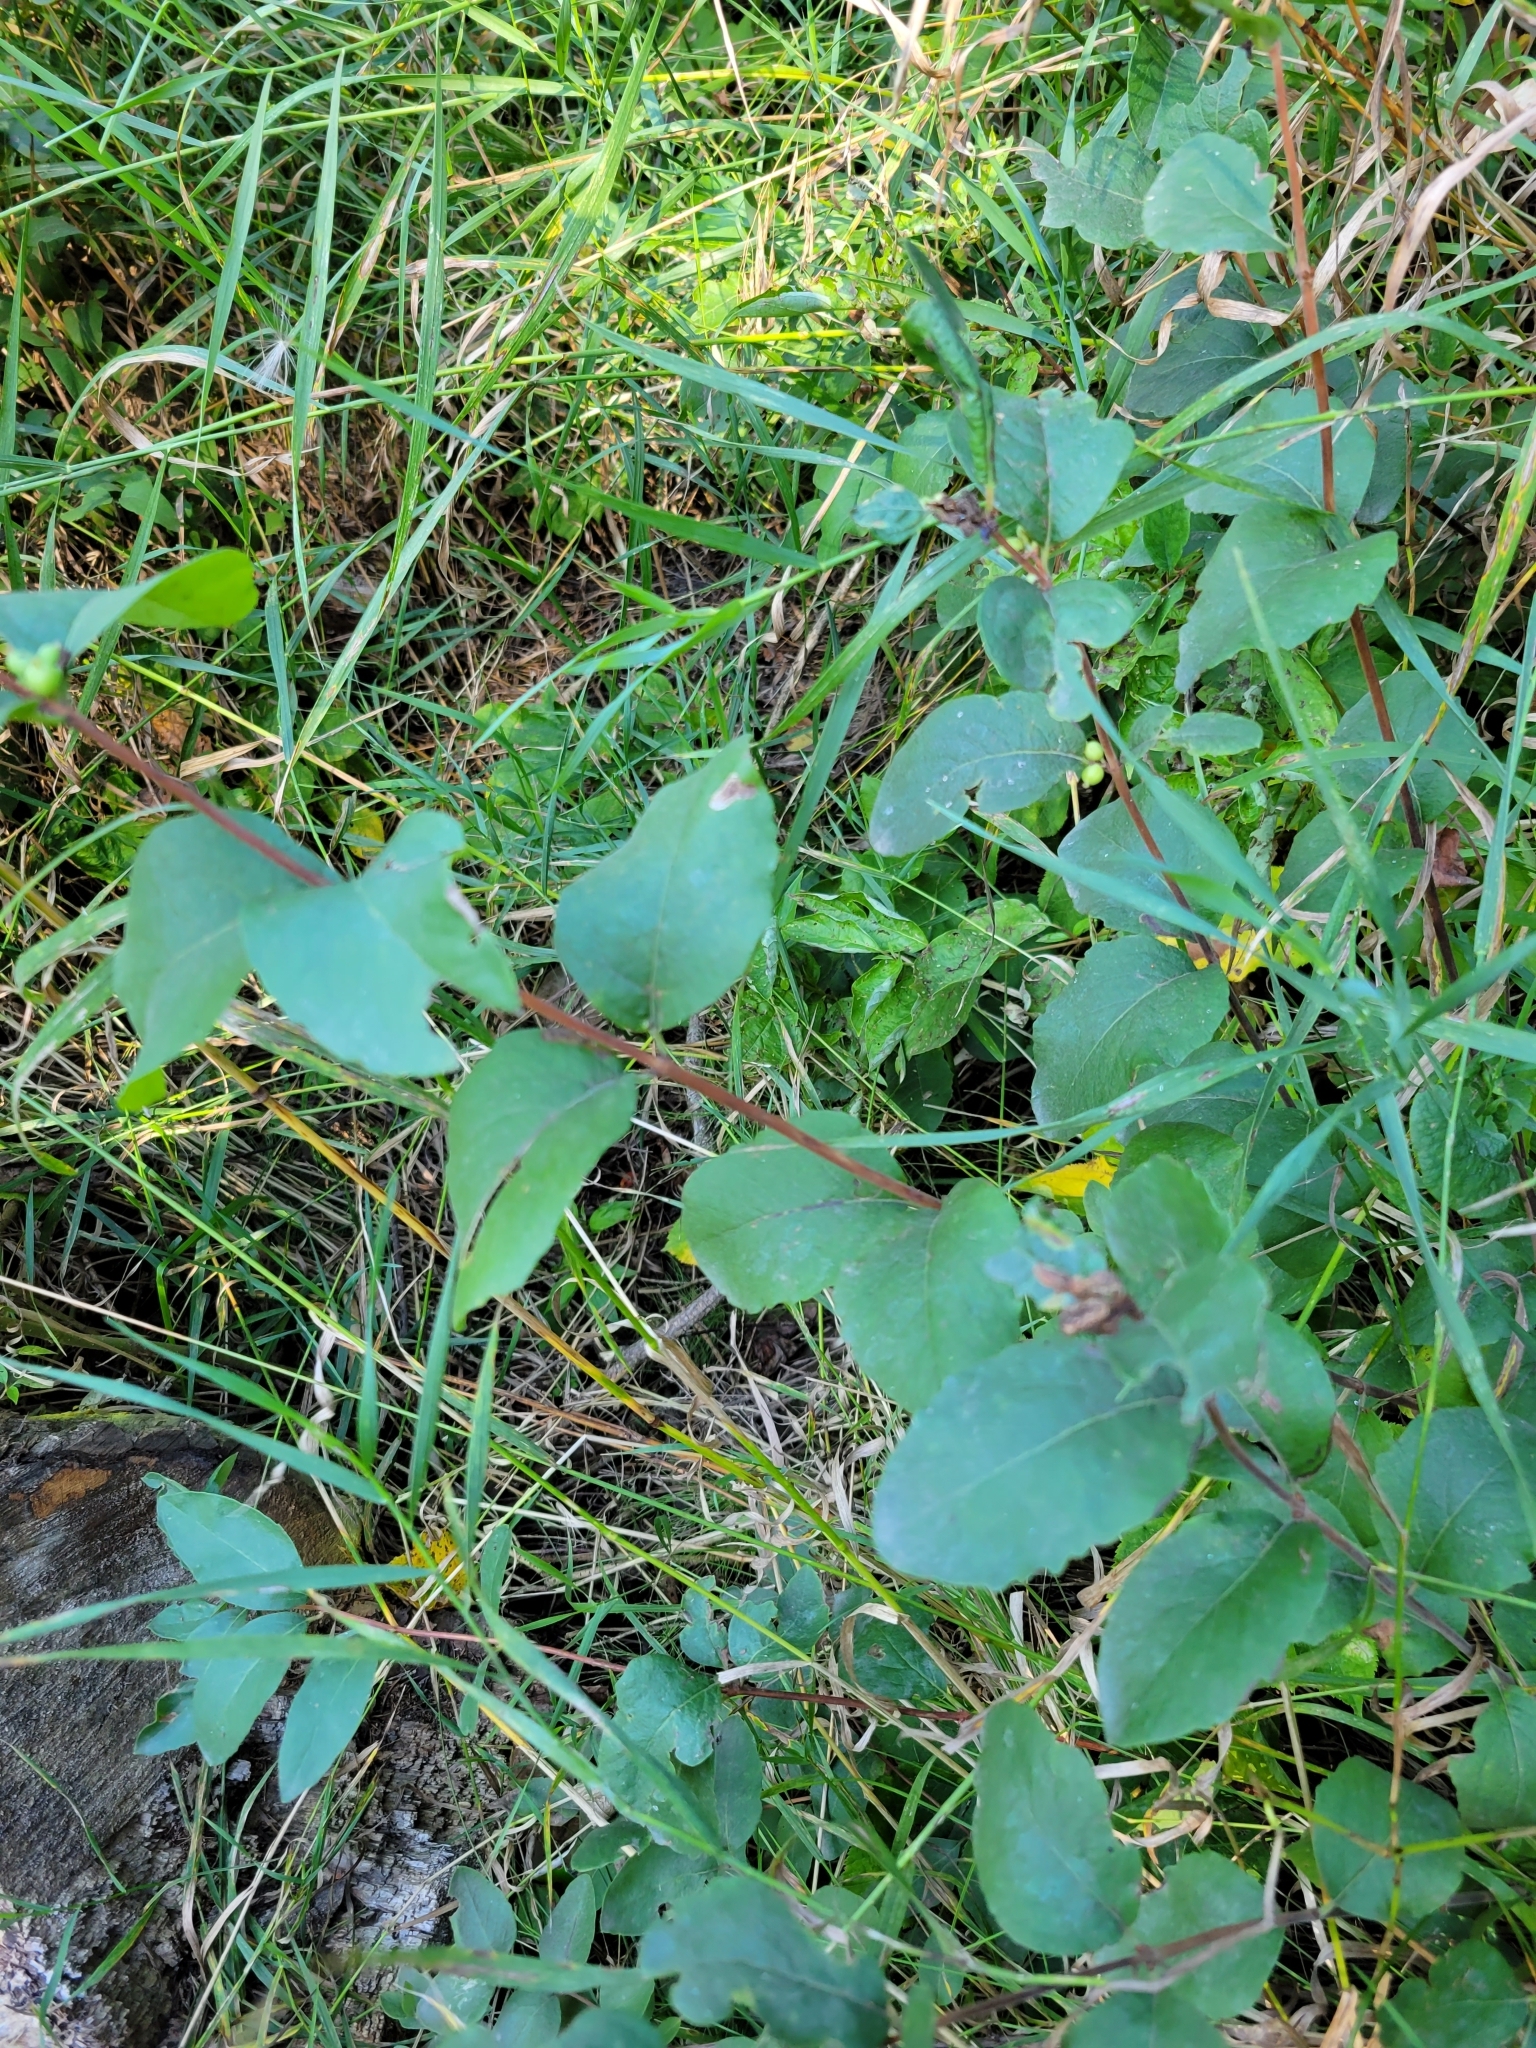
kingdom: Plantae
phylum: Tracheophyta
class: Magnoliopsida
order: Dipsacales
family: Caprifoliaceae
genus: Symphoricarpos
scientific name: Symphoricarpos occidentalis
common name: Wolfberry
